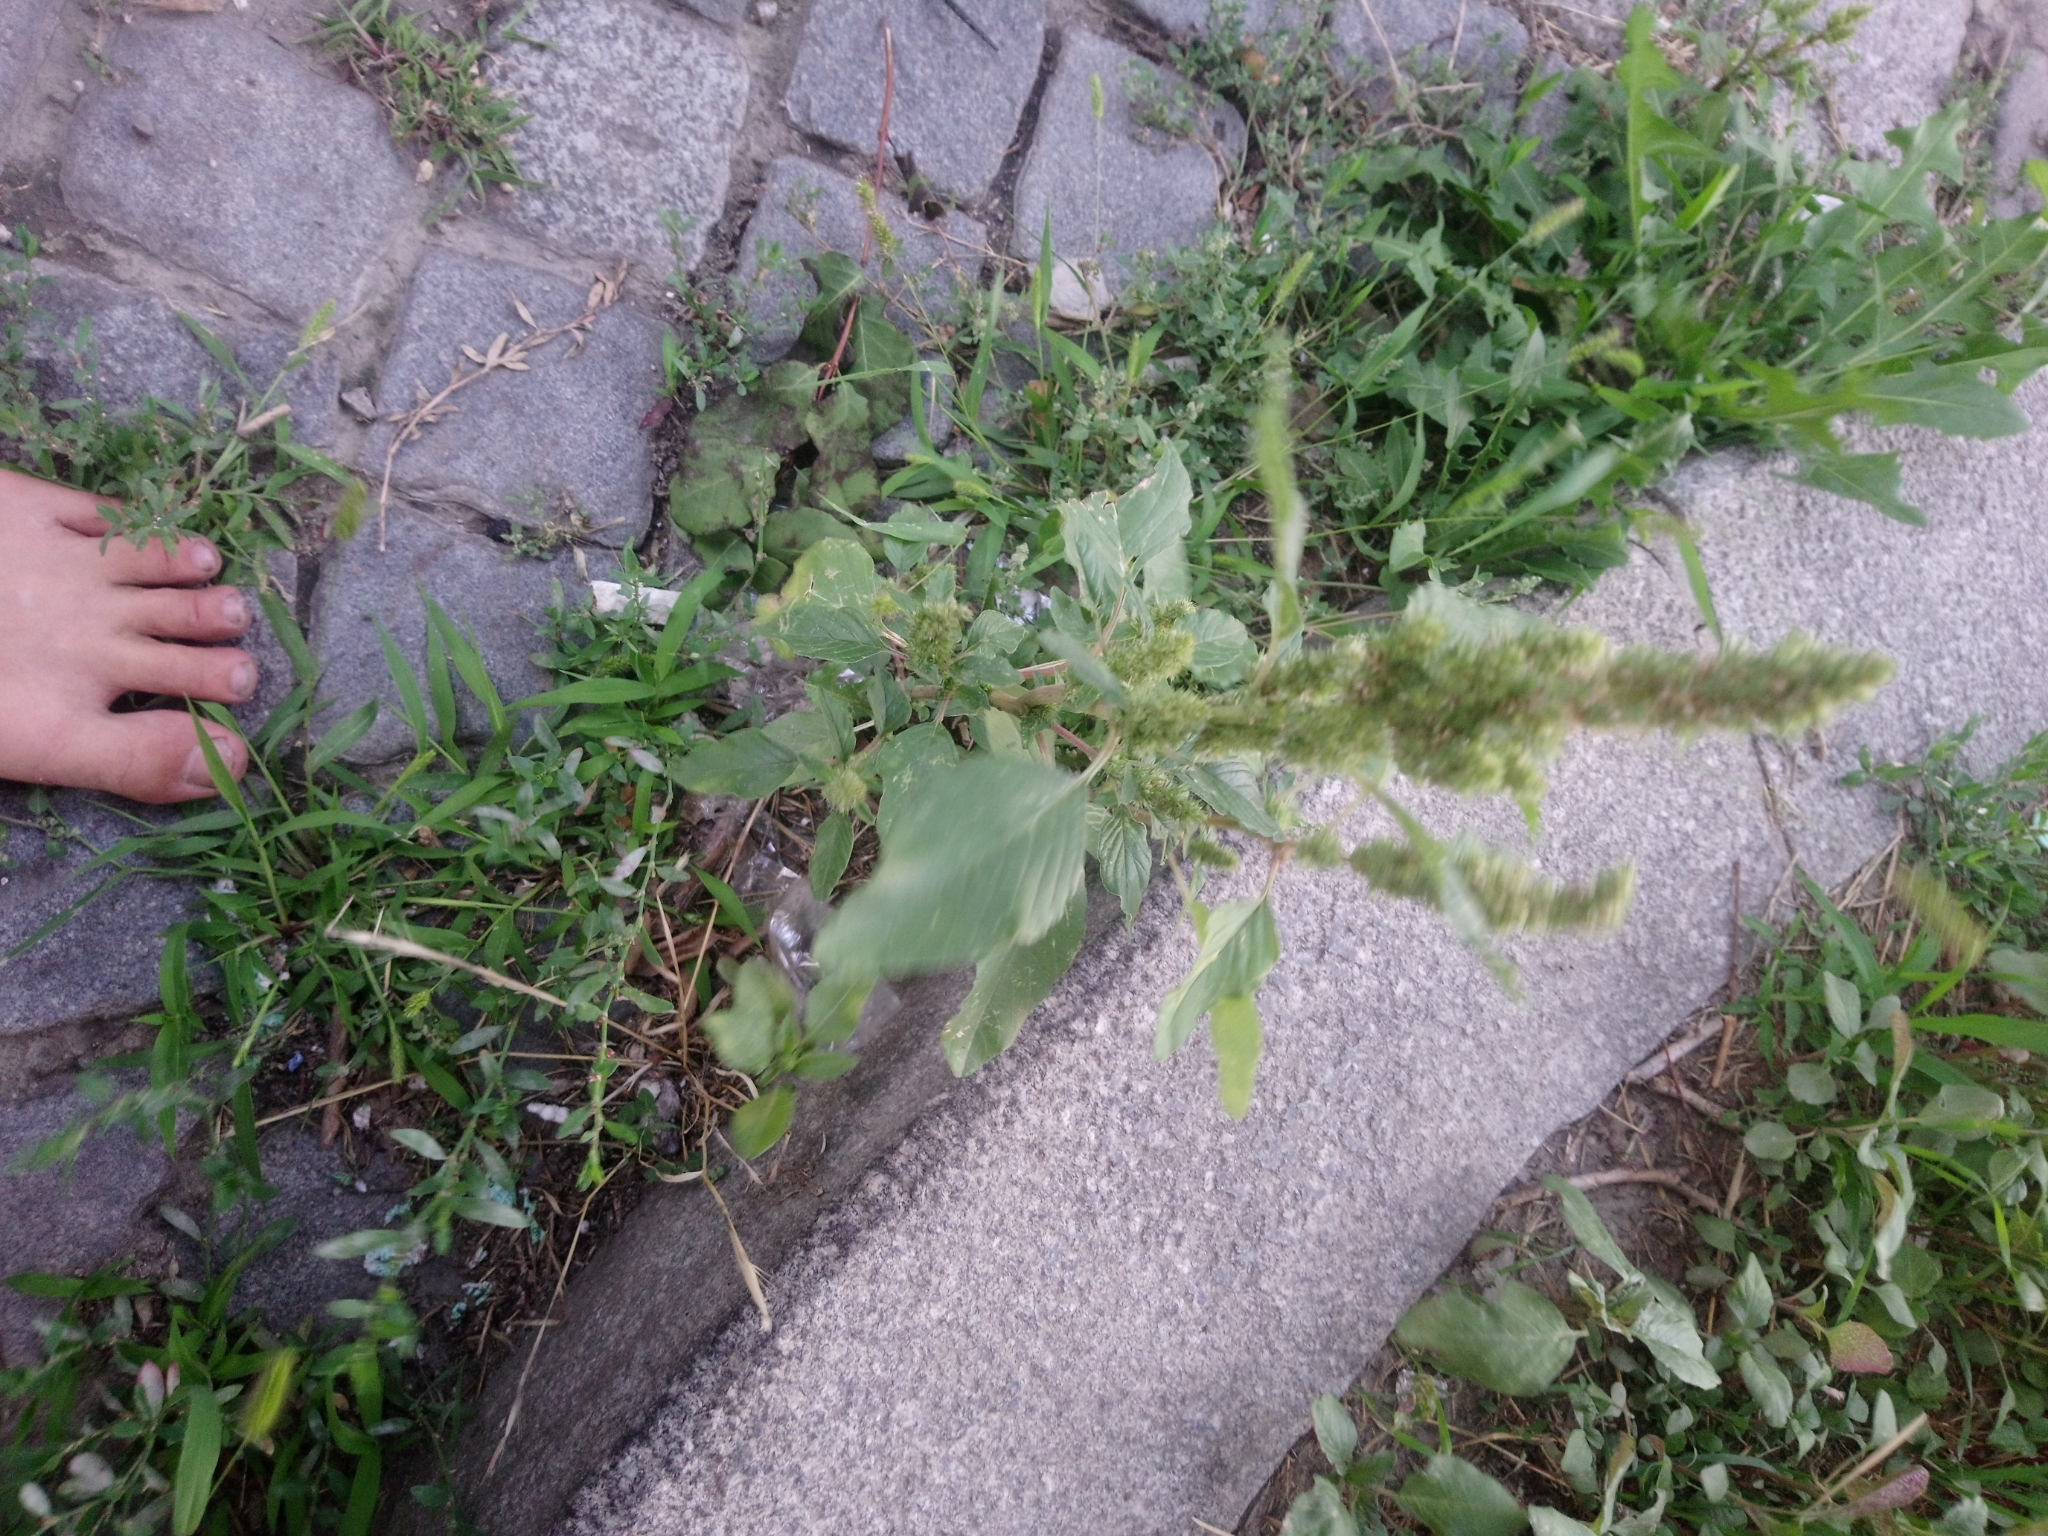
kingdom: Plantae
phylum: Tracheophyta
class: Magnoliopsida
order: Caryophyllales
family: Amaranthaceae
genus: Amaranthus
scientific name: Amaranthus retroflexus
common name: Redroot amaranth
